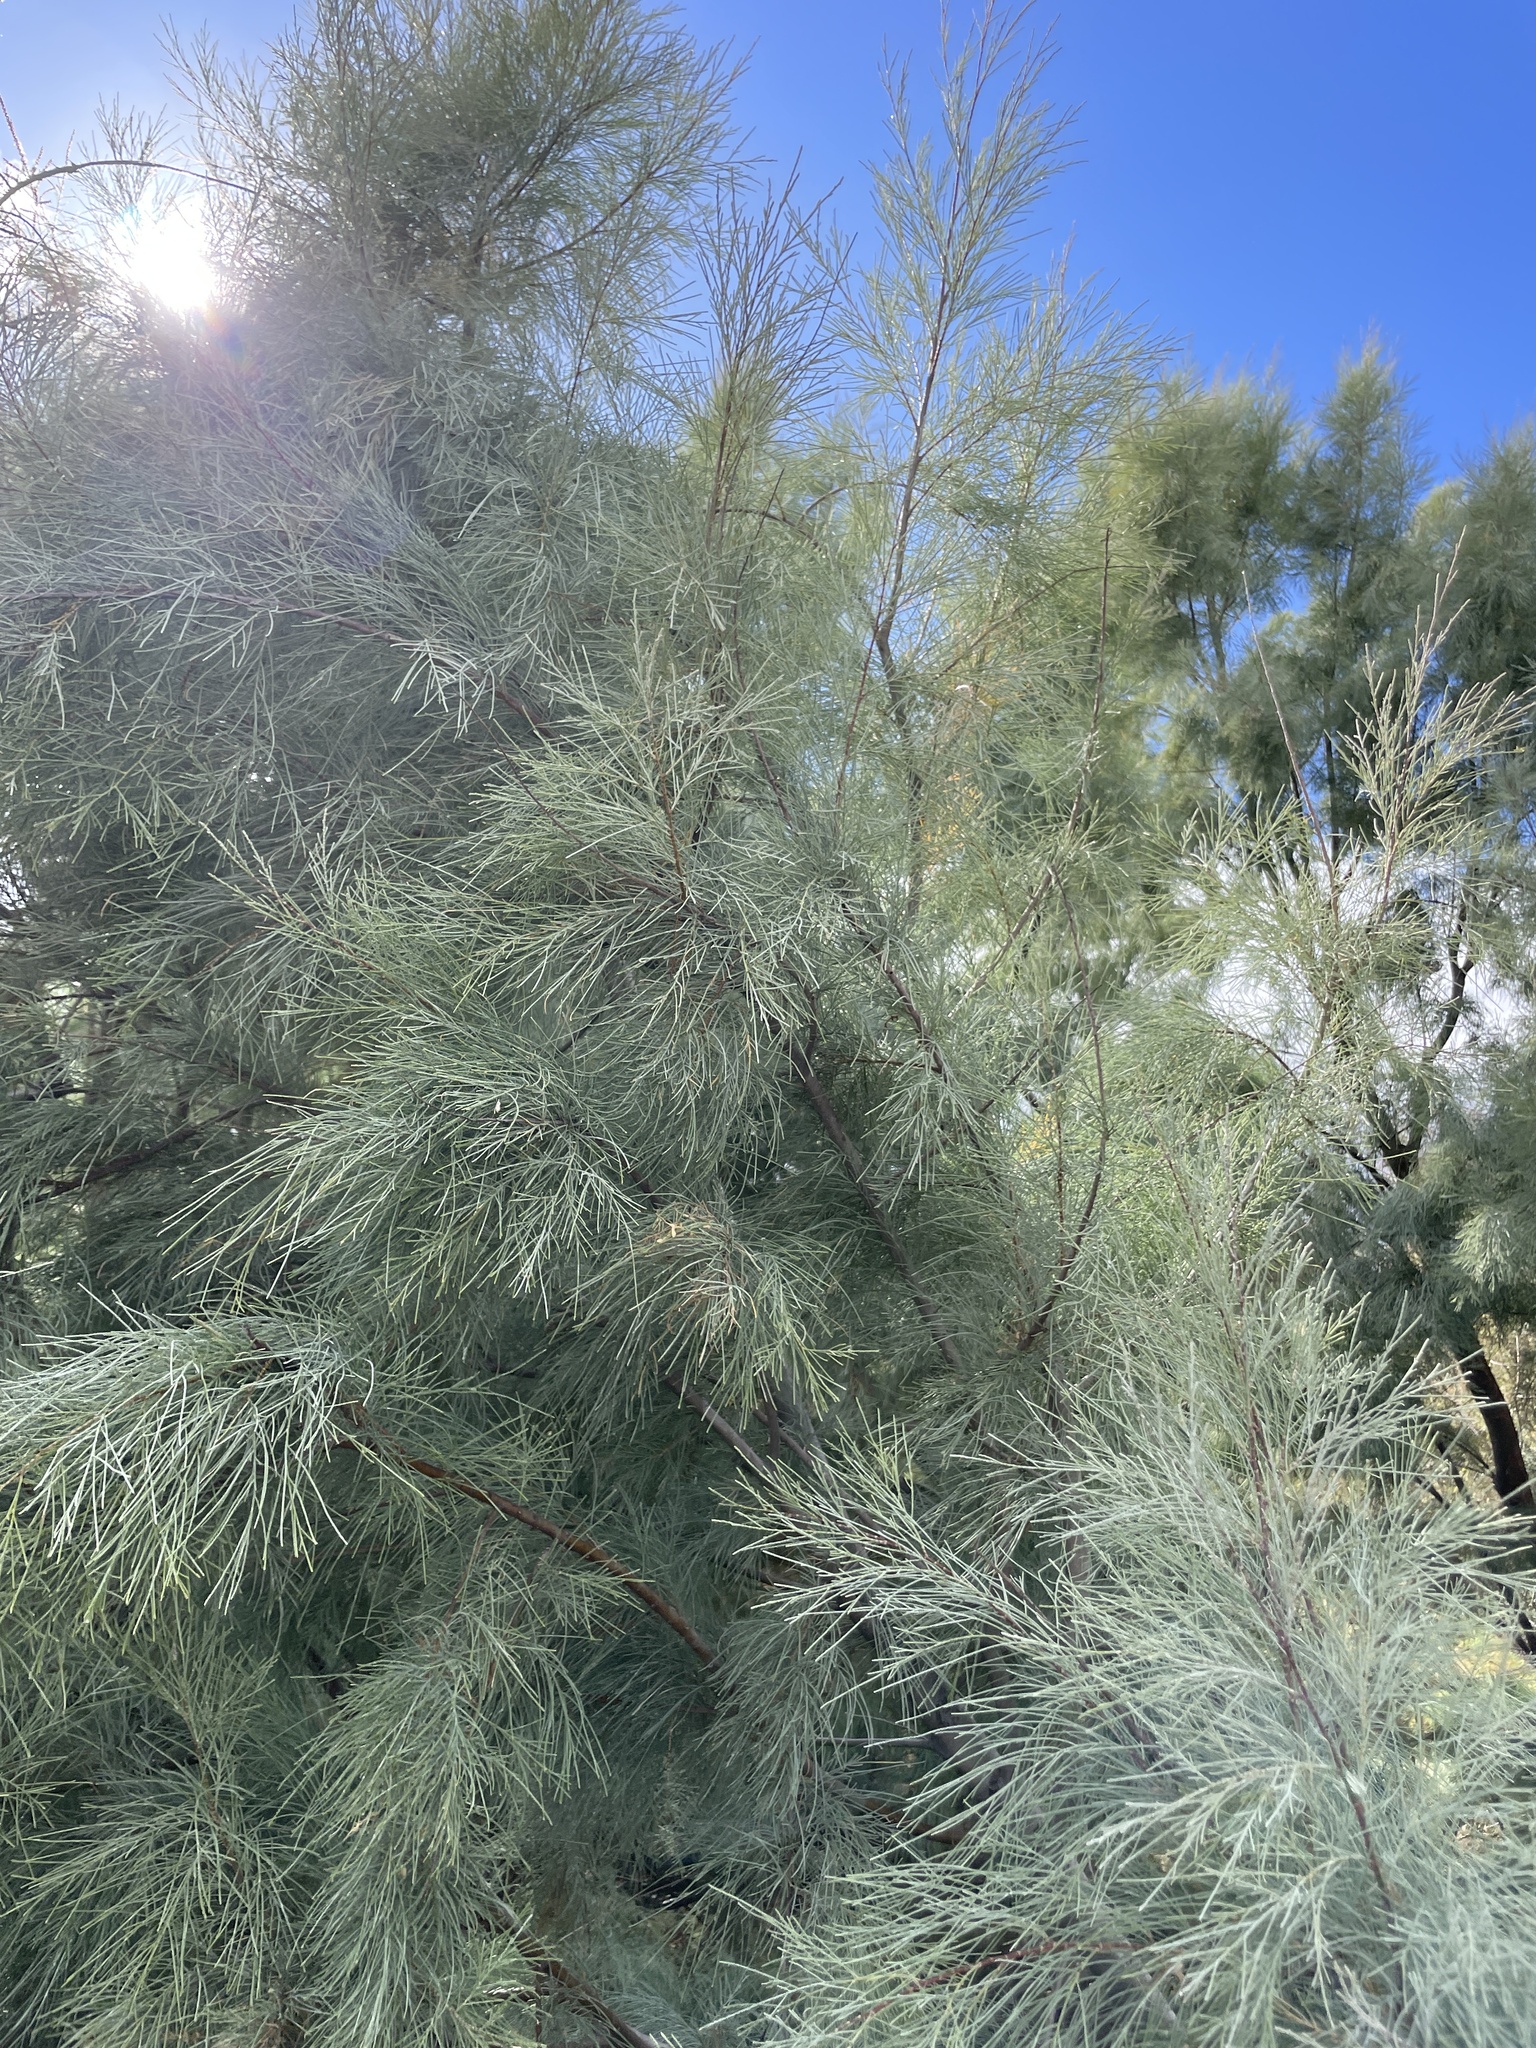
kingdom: Plantae
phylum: Tracheophyta
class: Magnoliopsida
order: Caryophyllales
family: Tamaricaceae
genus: Tamarix
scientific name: Tamarix aphylla
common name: Athel tamarisk
